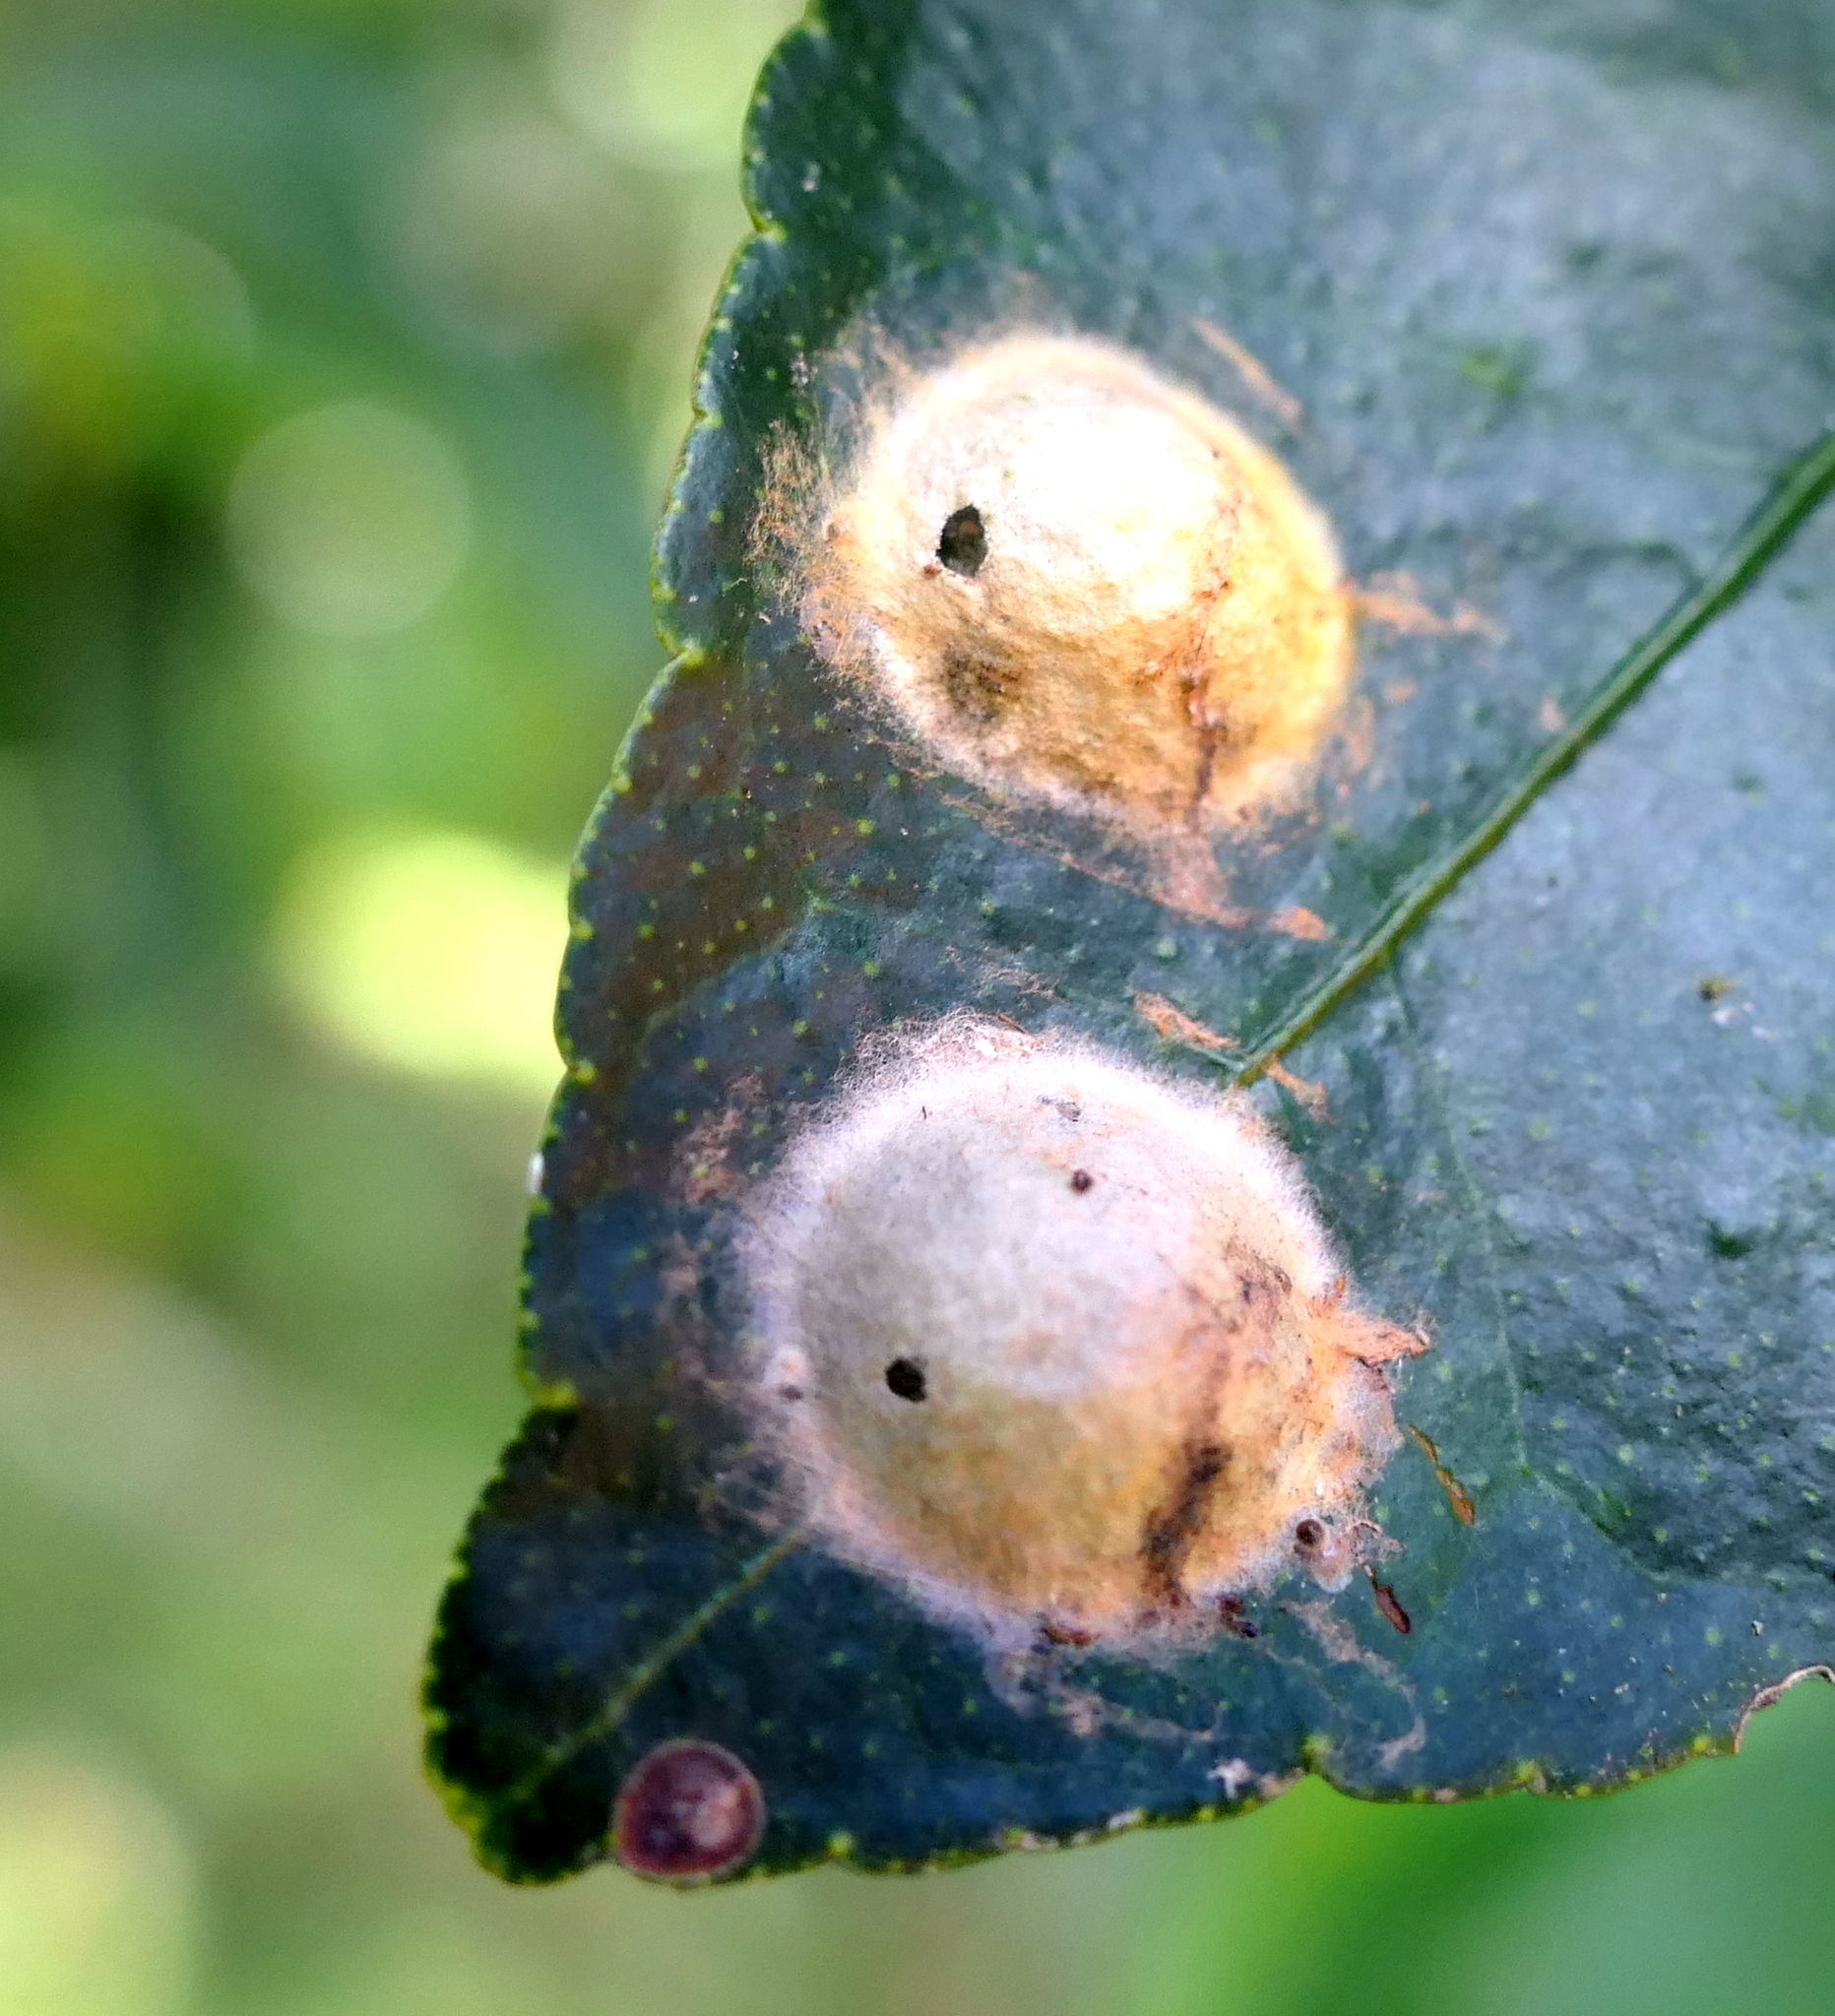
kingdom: Animalia
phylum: Arthropoda
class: Arachnida
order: Araneae
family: Araneidae
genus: Alpaida
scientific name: Alpaida bicornuta
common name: Orb weavers
